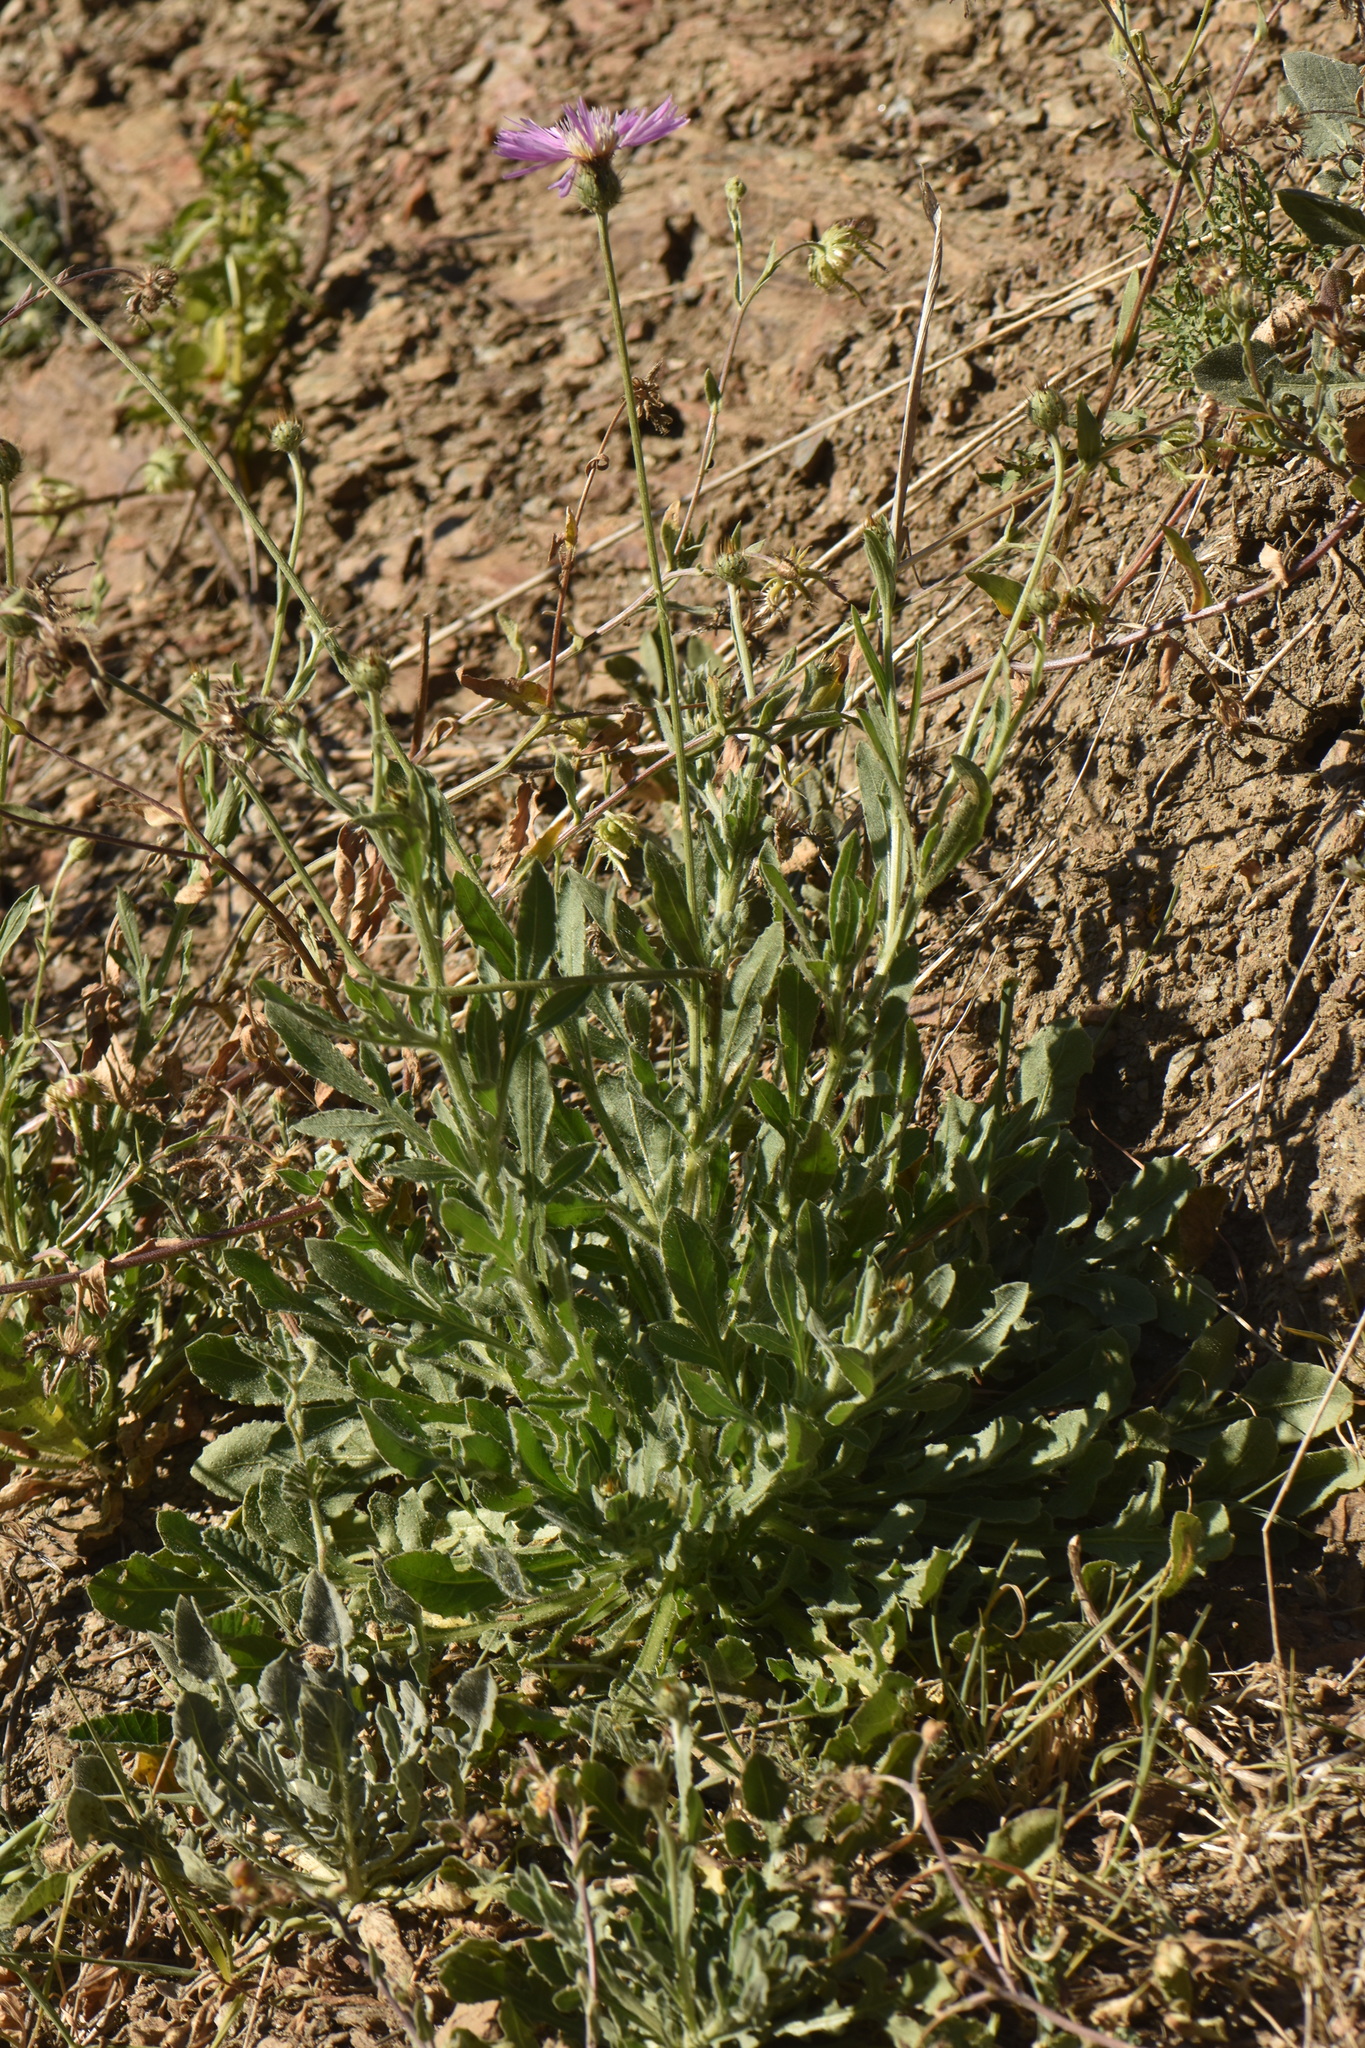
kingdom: Plantae
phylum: Tracheophyta
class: Magnoliopsida
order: Asterales
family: Asteraceae
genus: Volutaria
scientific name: Volutaria muricata
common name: Morocco knapweed
